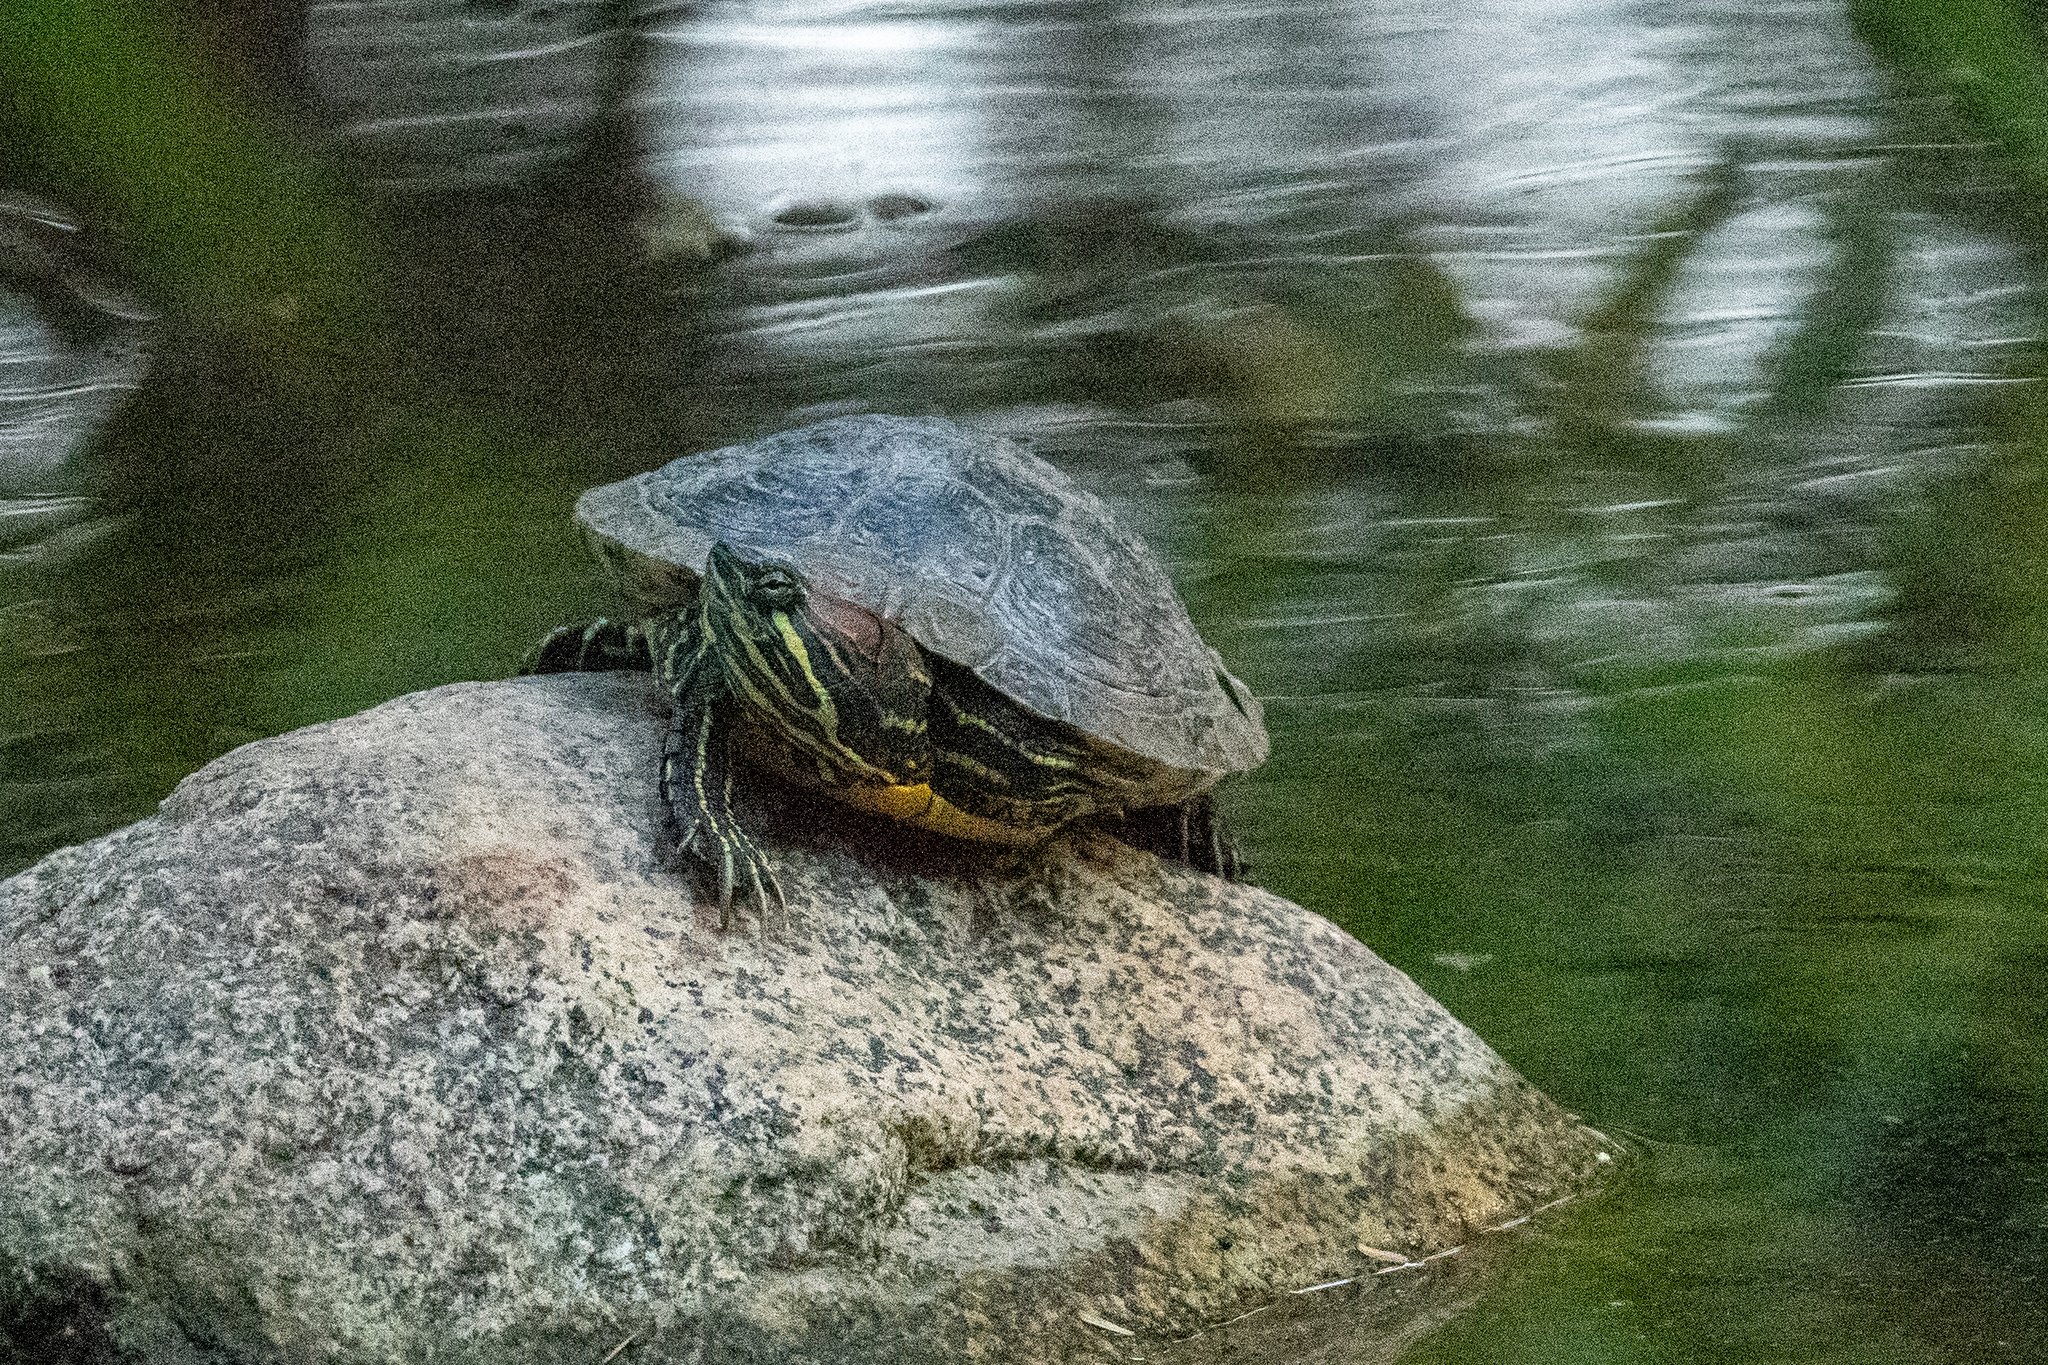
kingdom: Animalia
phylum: Chordata
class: Testudines
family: Emydidae
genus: Trachemys
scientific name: Trachemys scripta
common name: Slider
